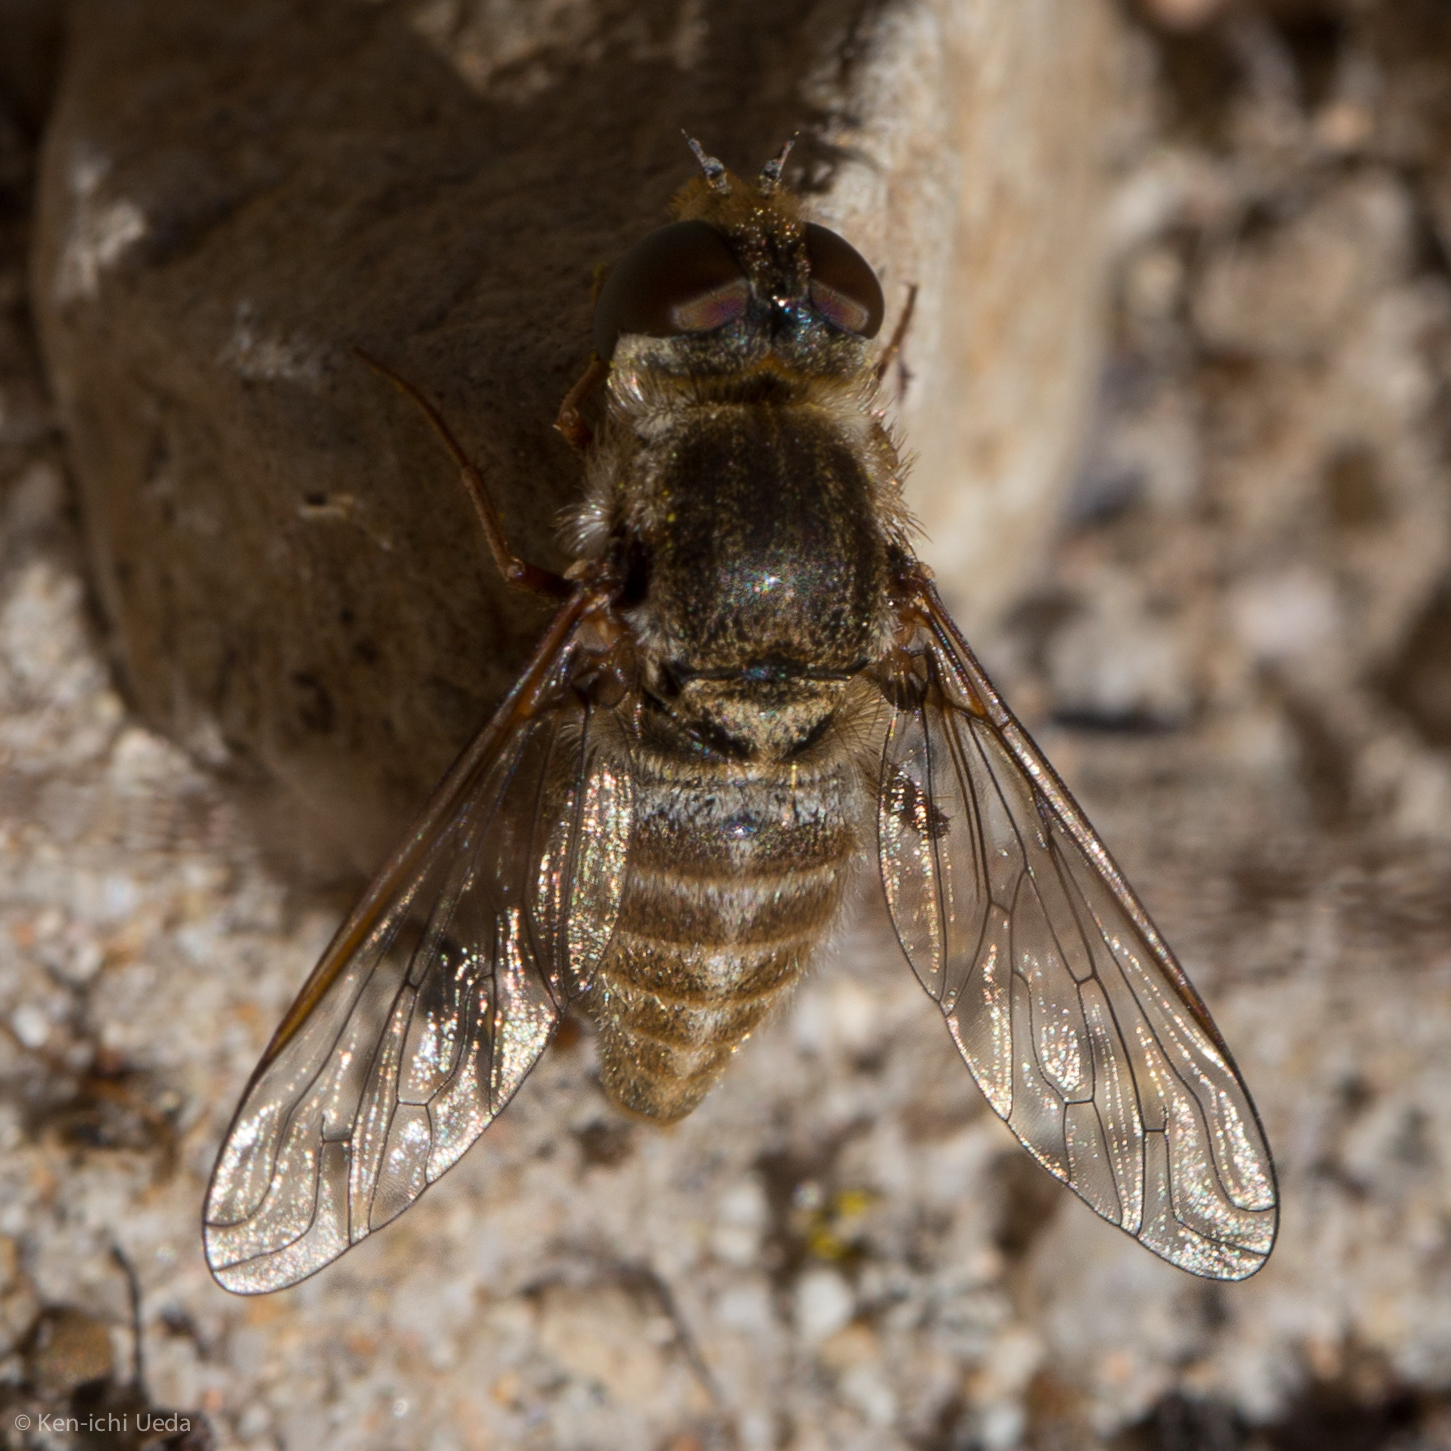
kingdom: Animalia
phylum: Arthropoda
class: Insecta
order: Diptera
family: Bombyliidae
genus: Aphoebantus
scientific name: Aphoebantus borealis
